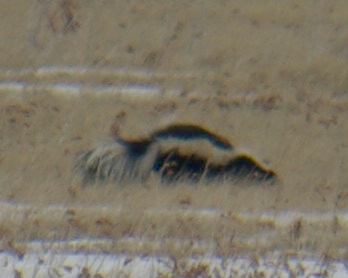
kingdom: Animalia
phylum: Chordata
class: Mammalia
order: Carnivora
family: Mephitidae
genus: Mephitis
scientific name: Mephitis mephitis
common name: Striped skunk
